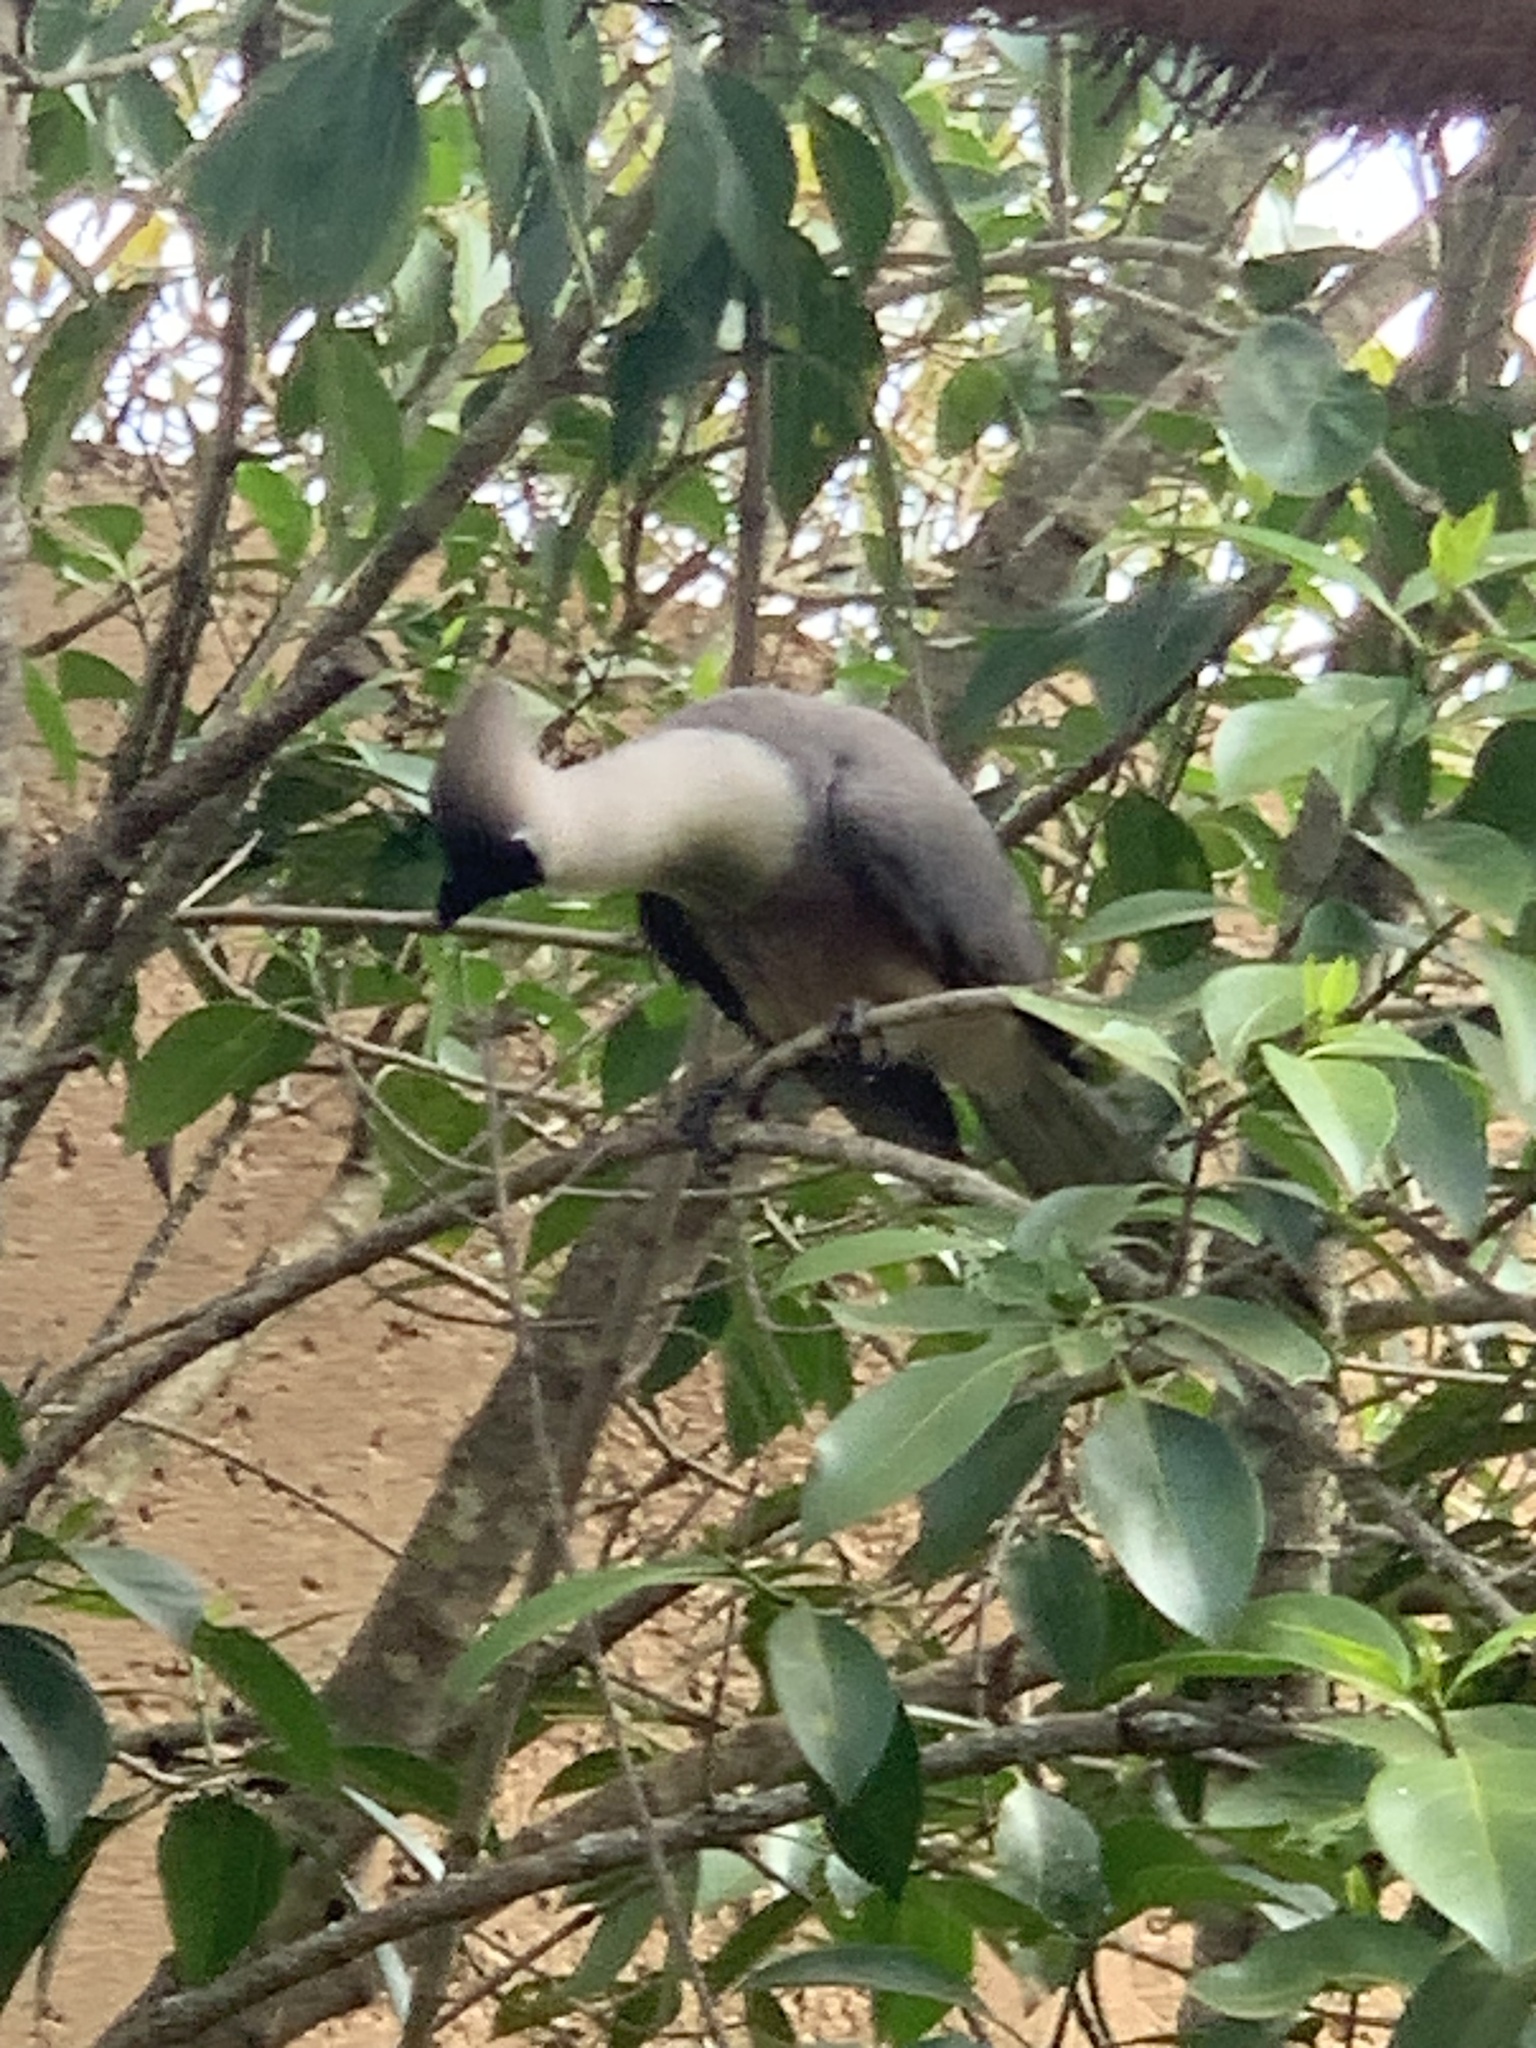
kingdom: Animalia
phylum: Chordata
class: Aves
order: Musophagiformes
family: Musophagidae
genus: Corythaixoides
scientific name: Corythaixoides personatus
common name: Bare-faced go-away-bird
